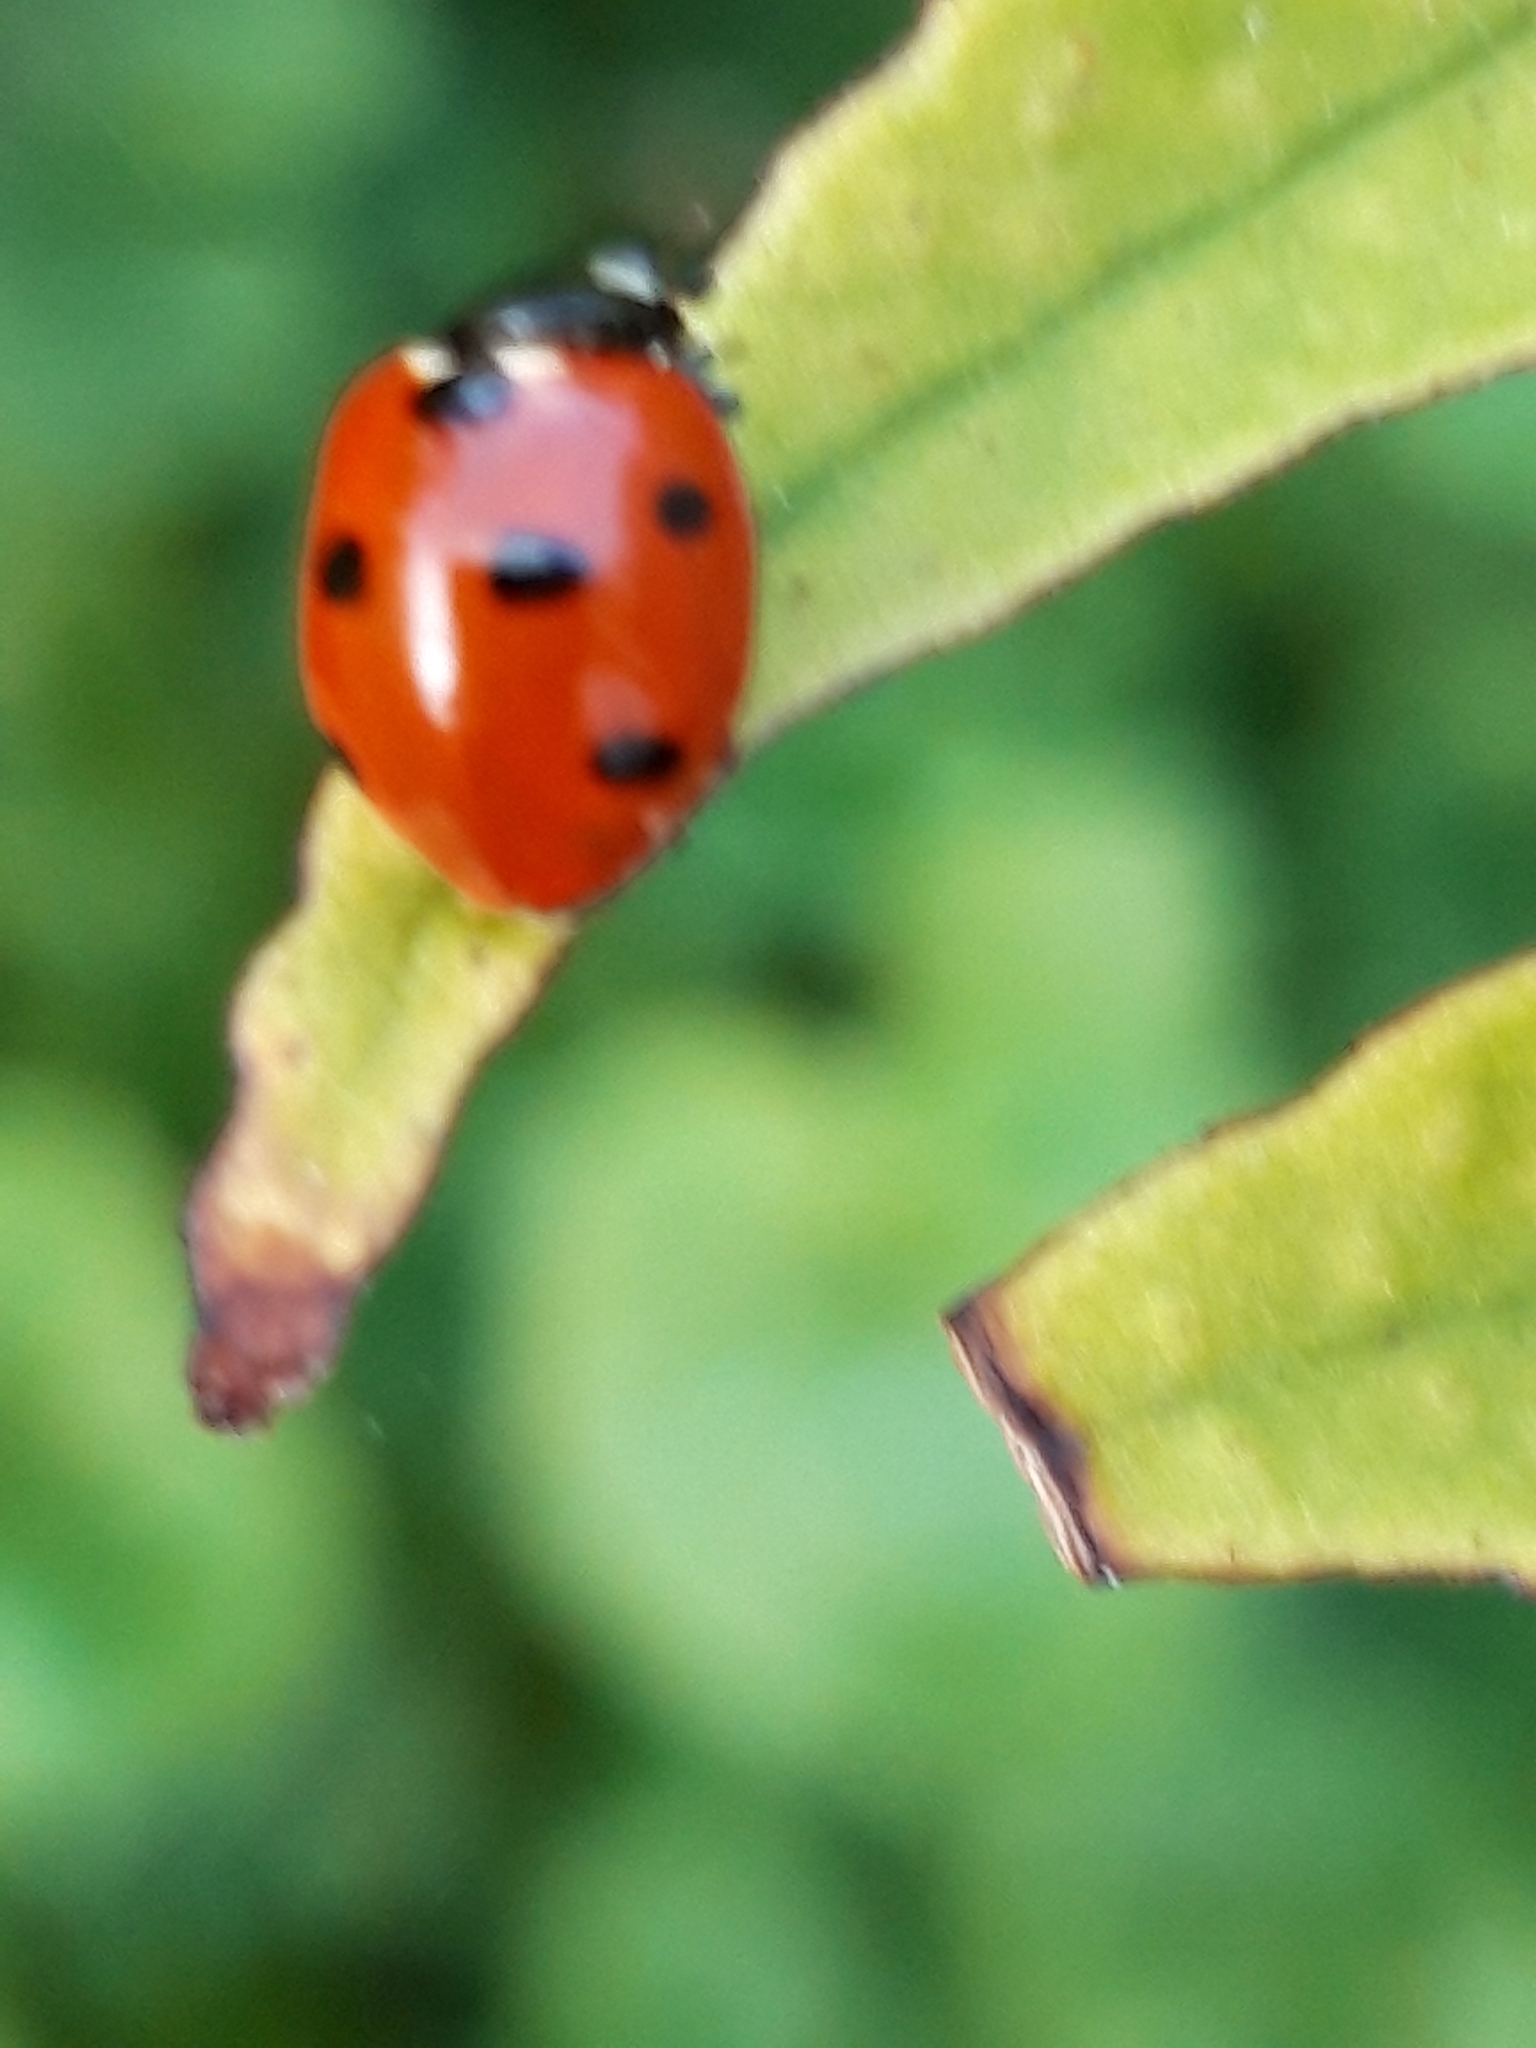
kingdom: Animalia
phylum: Arthropoda
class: Insecta
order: Coleoptera
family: Coccinellidae
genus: Coccinella
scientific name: Coccinella septempunctata
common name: Sevenspotted lady beetle
